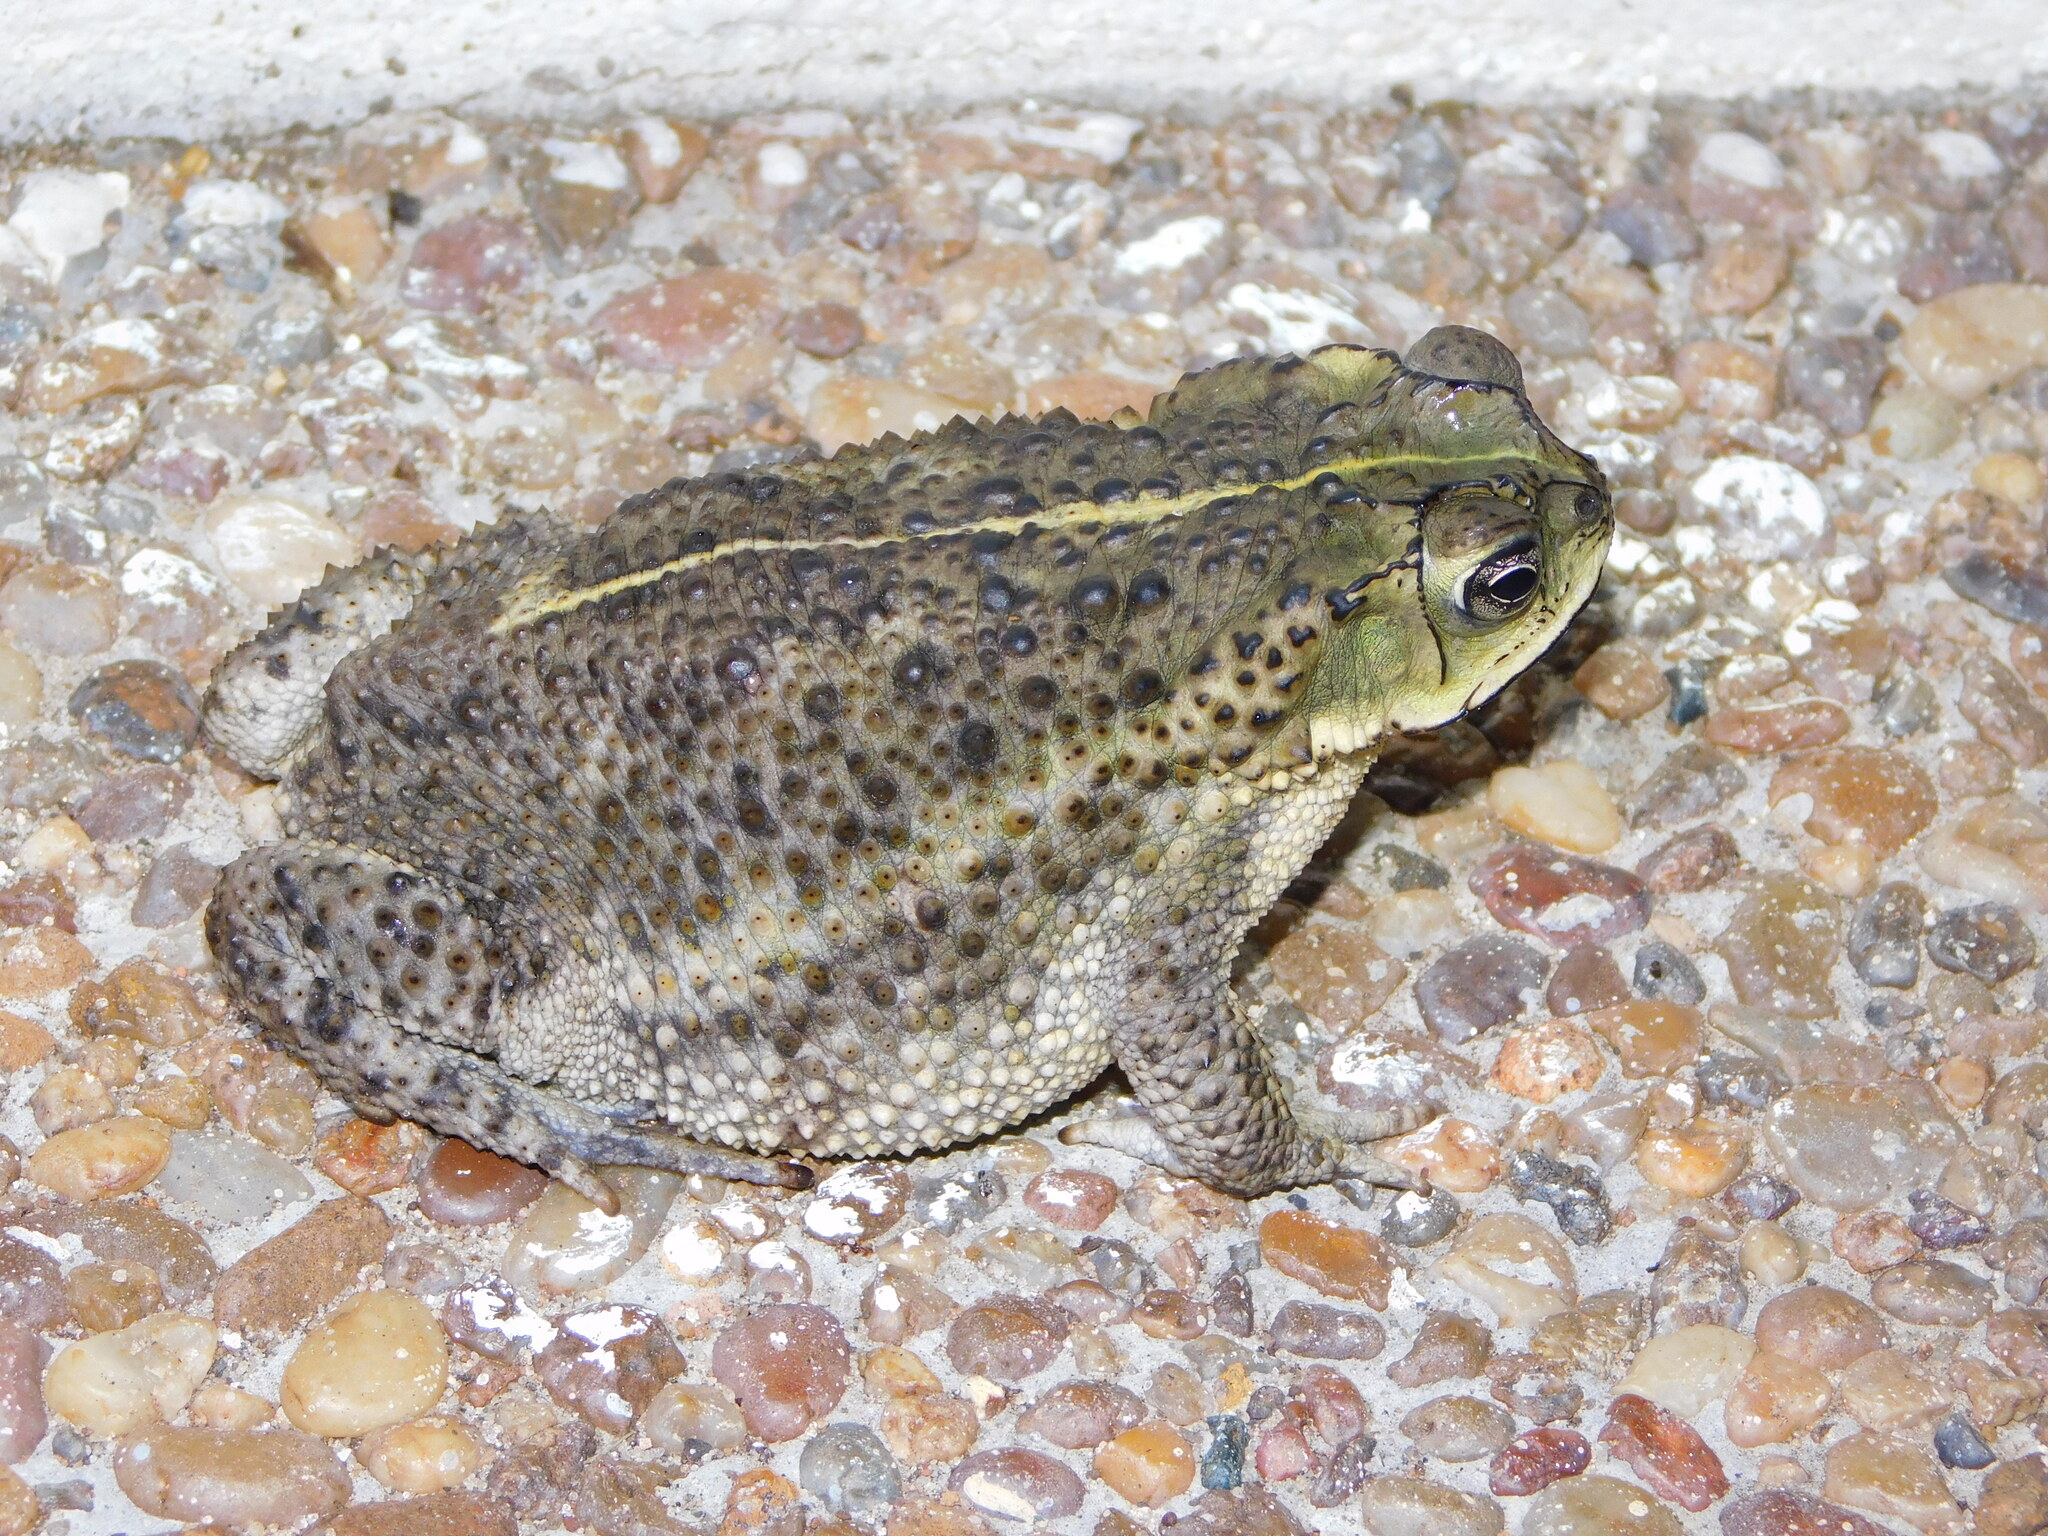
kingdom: Animalia
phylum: Chordata
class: Amphibia
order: Anura
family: Bufonidae
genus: Rhinella
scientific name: Rhinella dorbignyi
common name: D´orbigny’s toad
